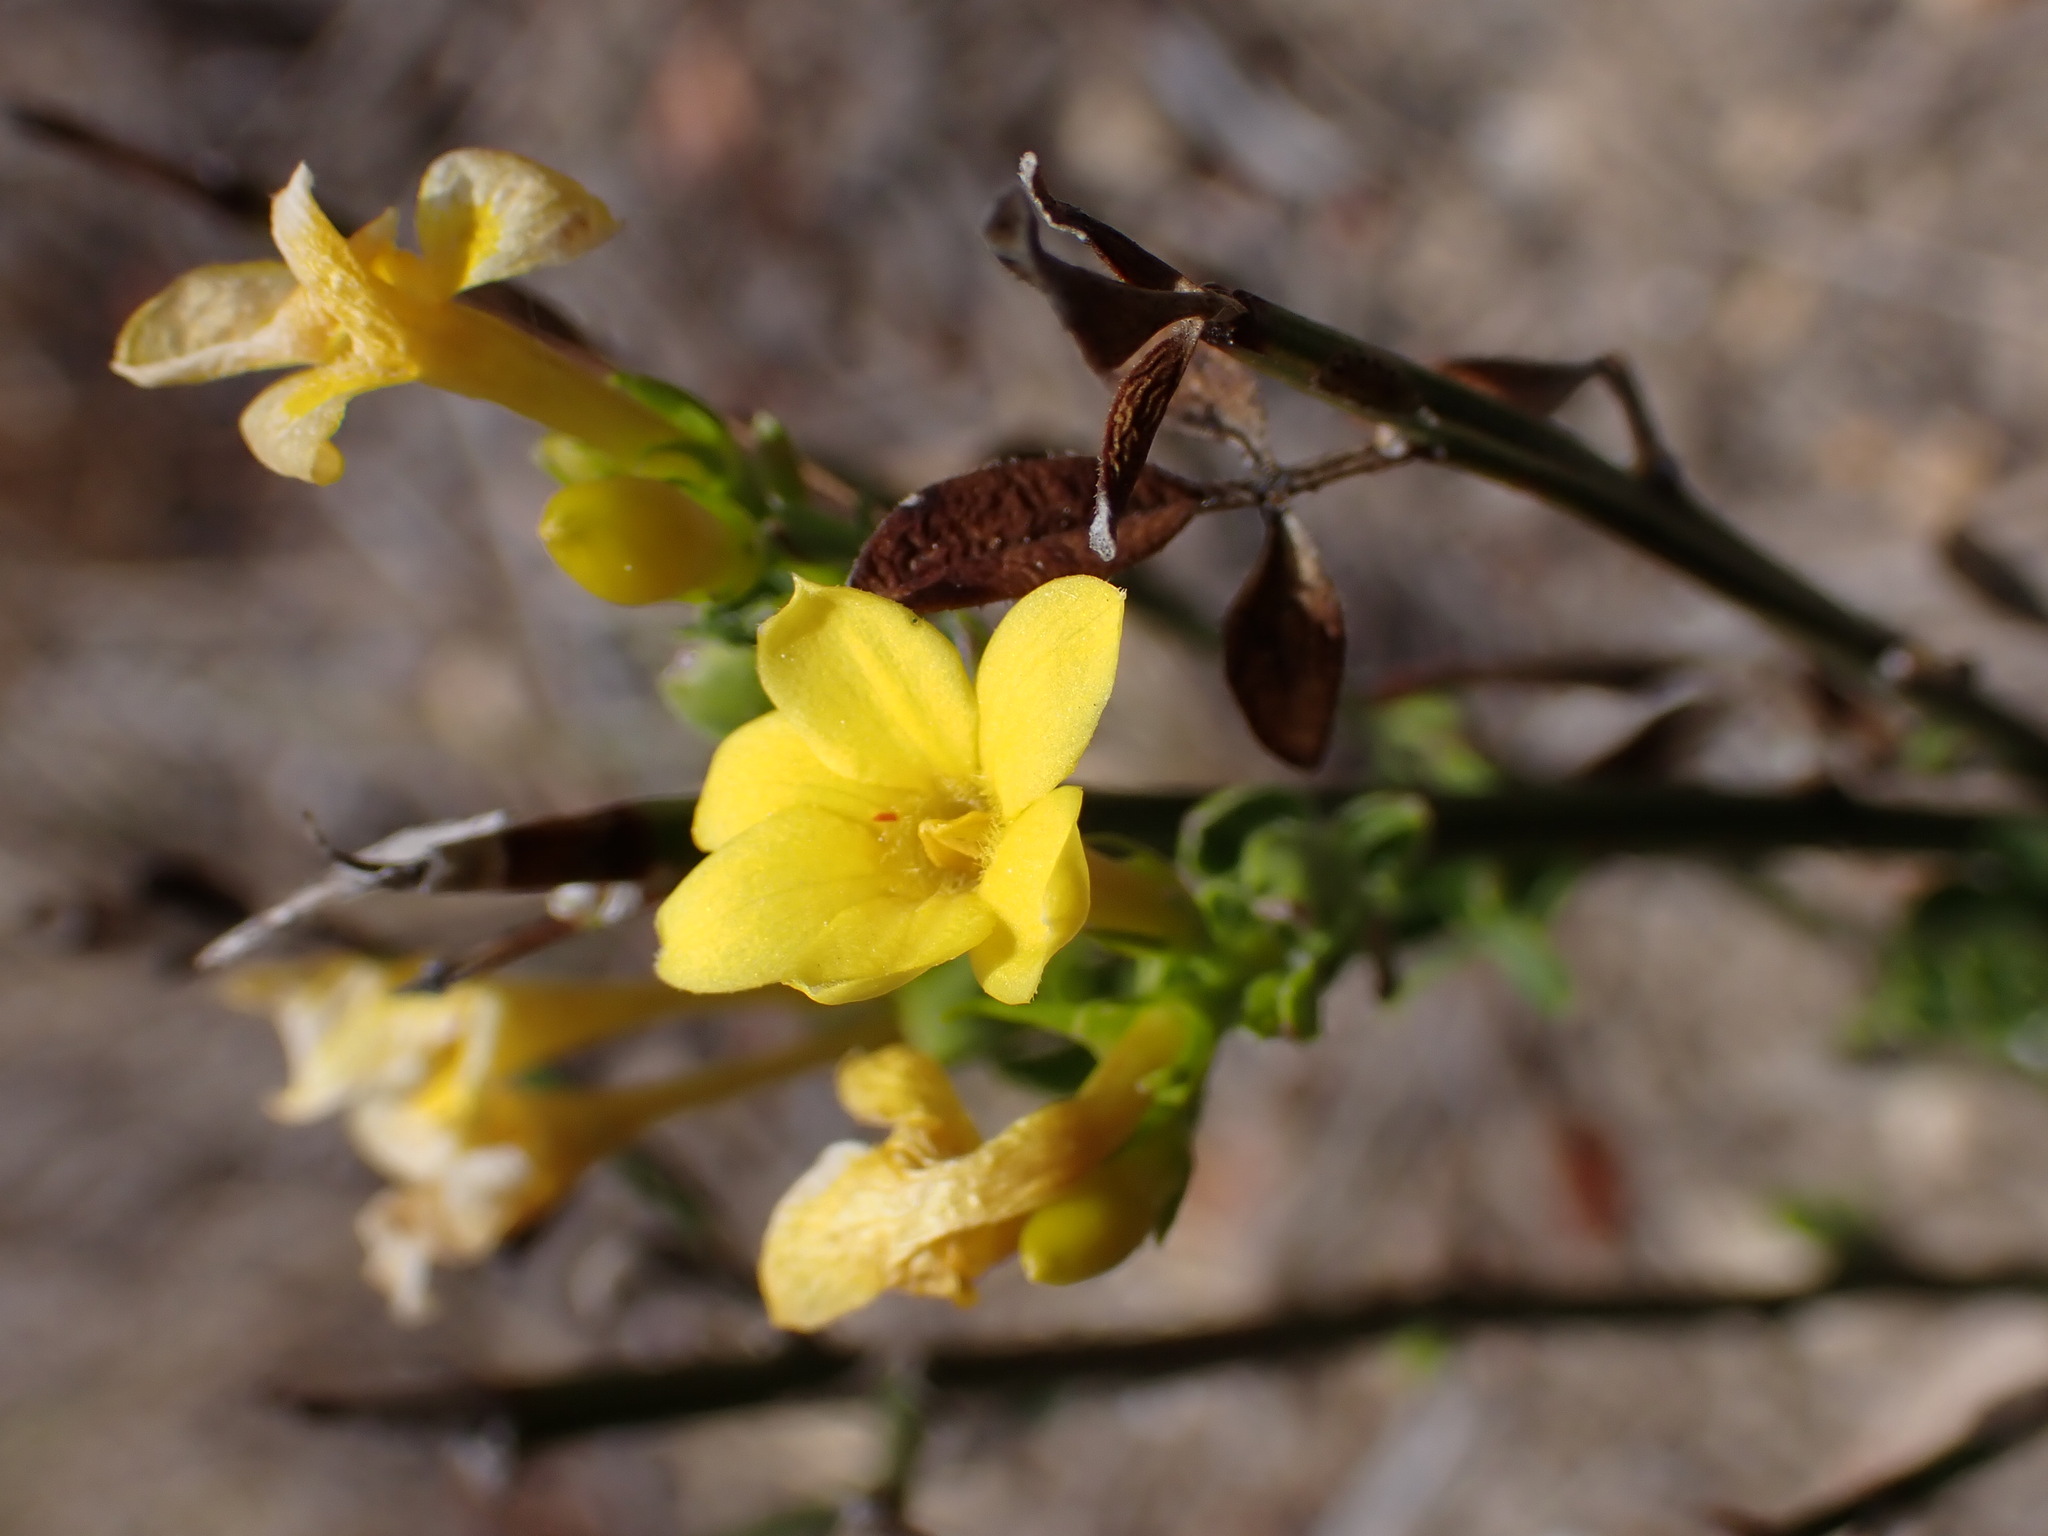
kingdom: Plantae
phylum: Tracheophyta
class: Magnoliopsida
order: Lamiales
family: Oleaceae
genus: Chrysojasminum
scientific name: Chrysojasminum fruticans
